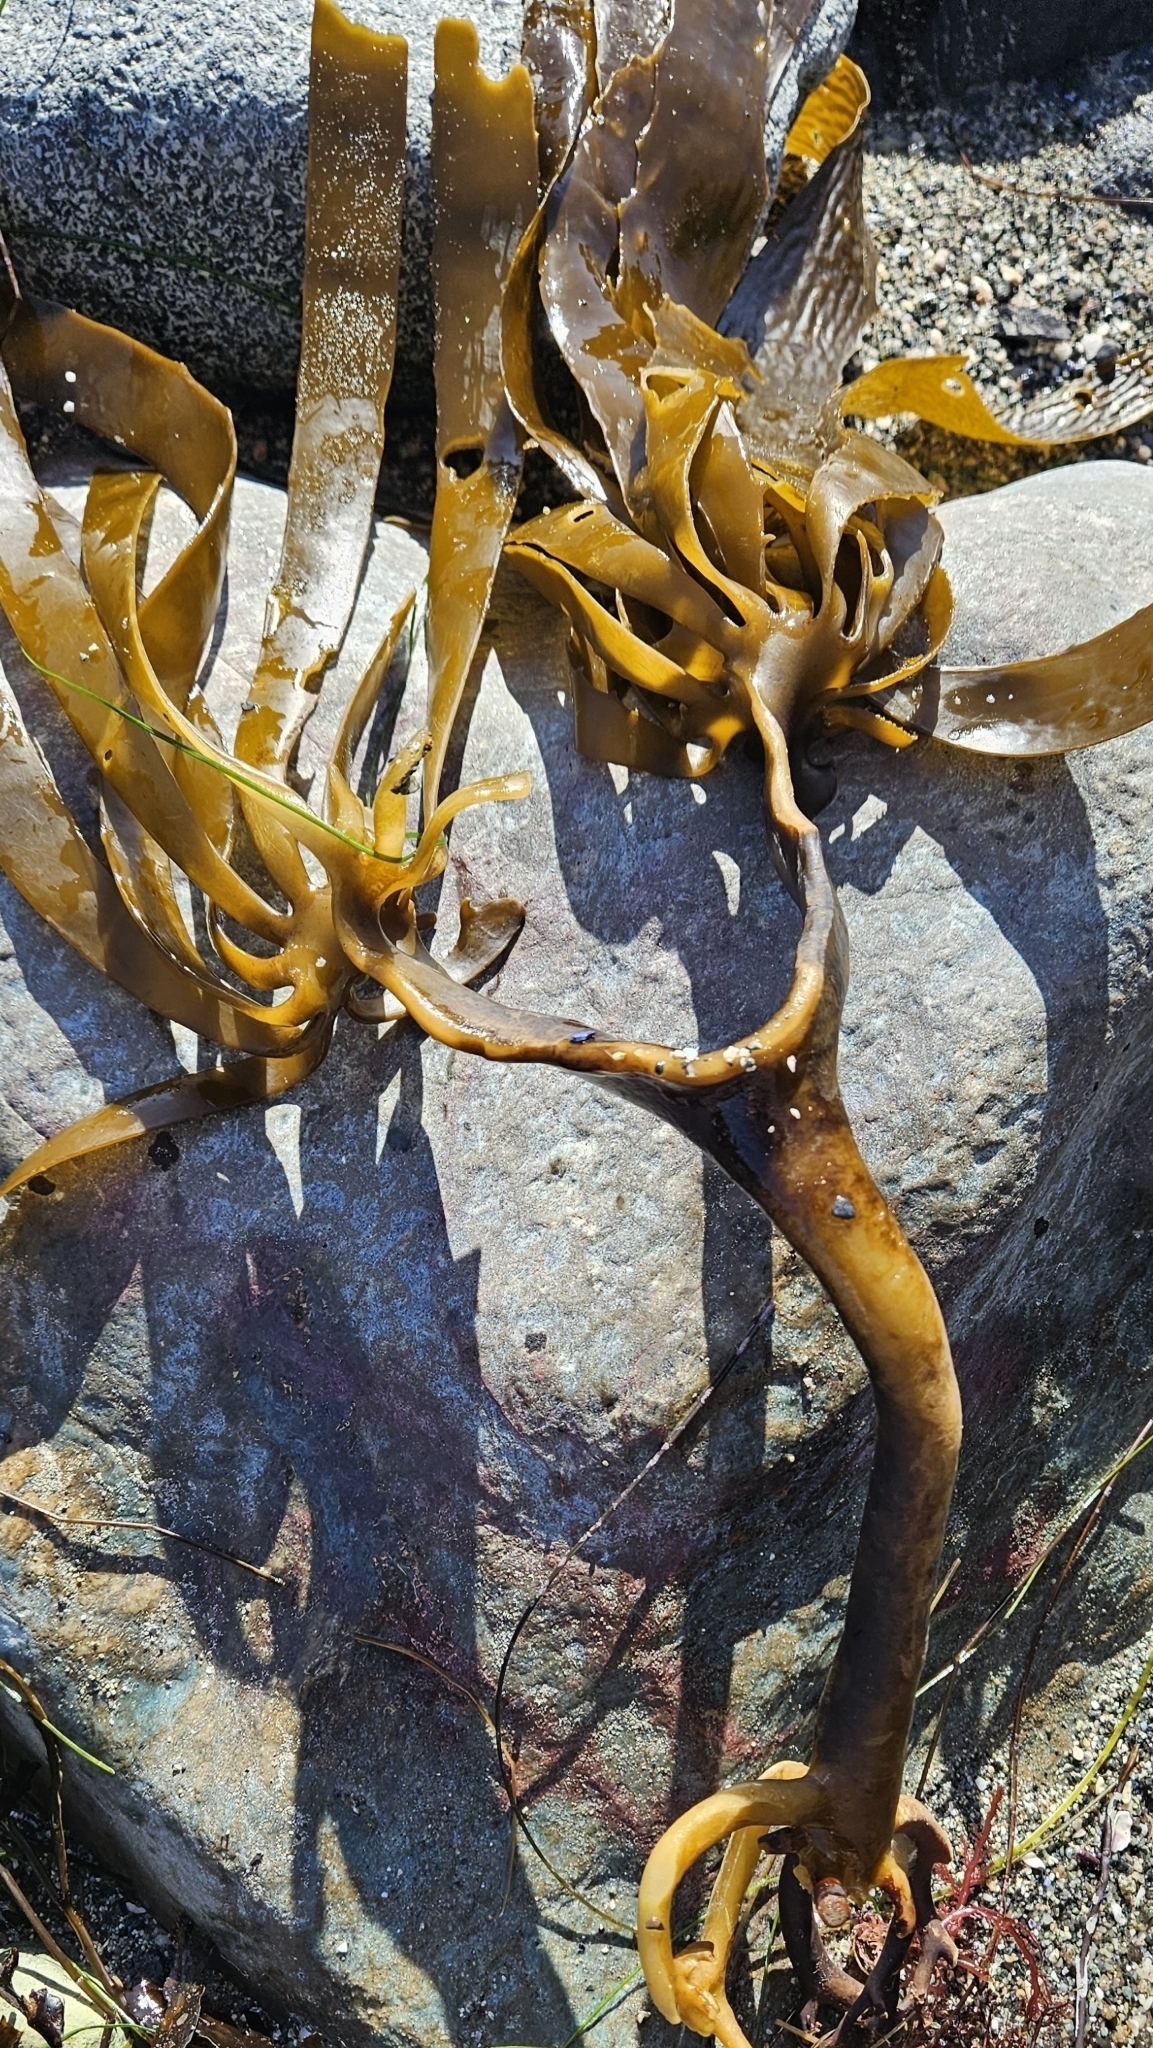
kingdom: Chromista
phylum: Ochrophyta
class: Phaeophyceae
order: Laminariales
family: Lessoniaceae
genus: Eisenia
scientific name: Eisenia arborea
